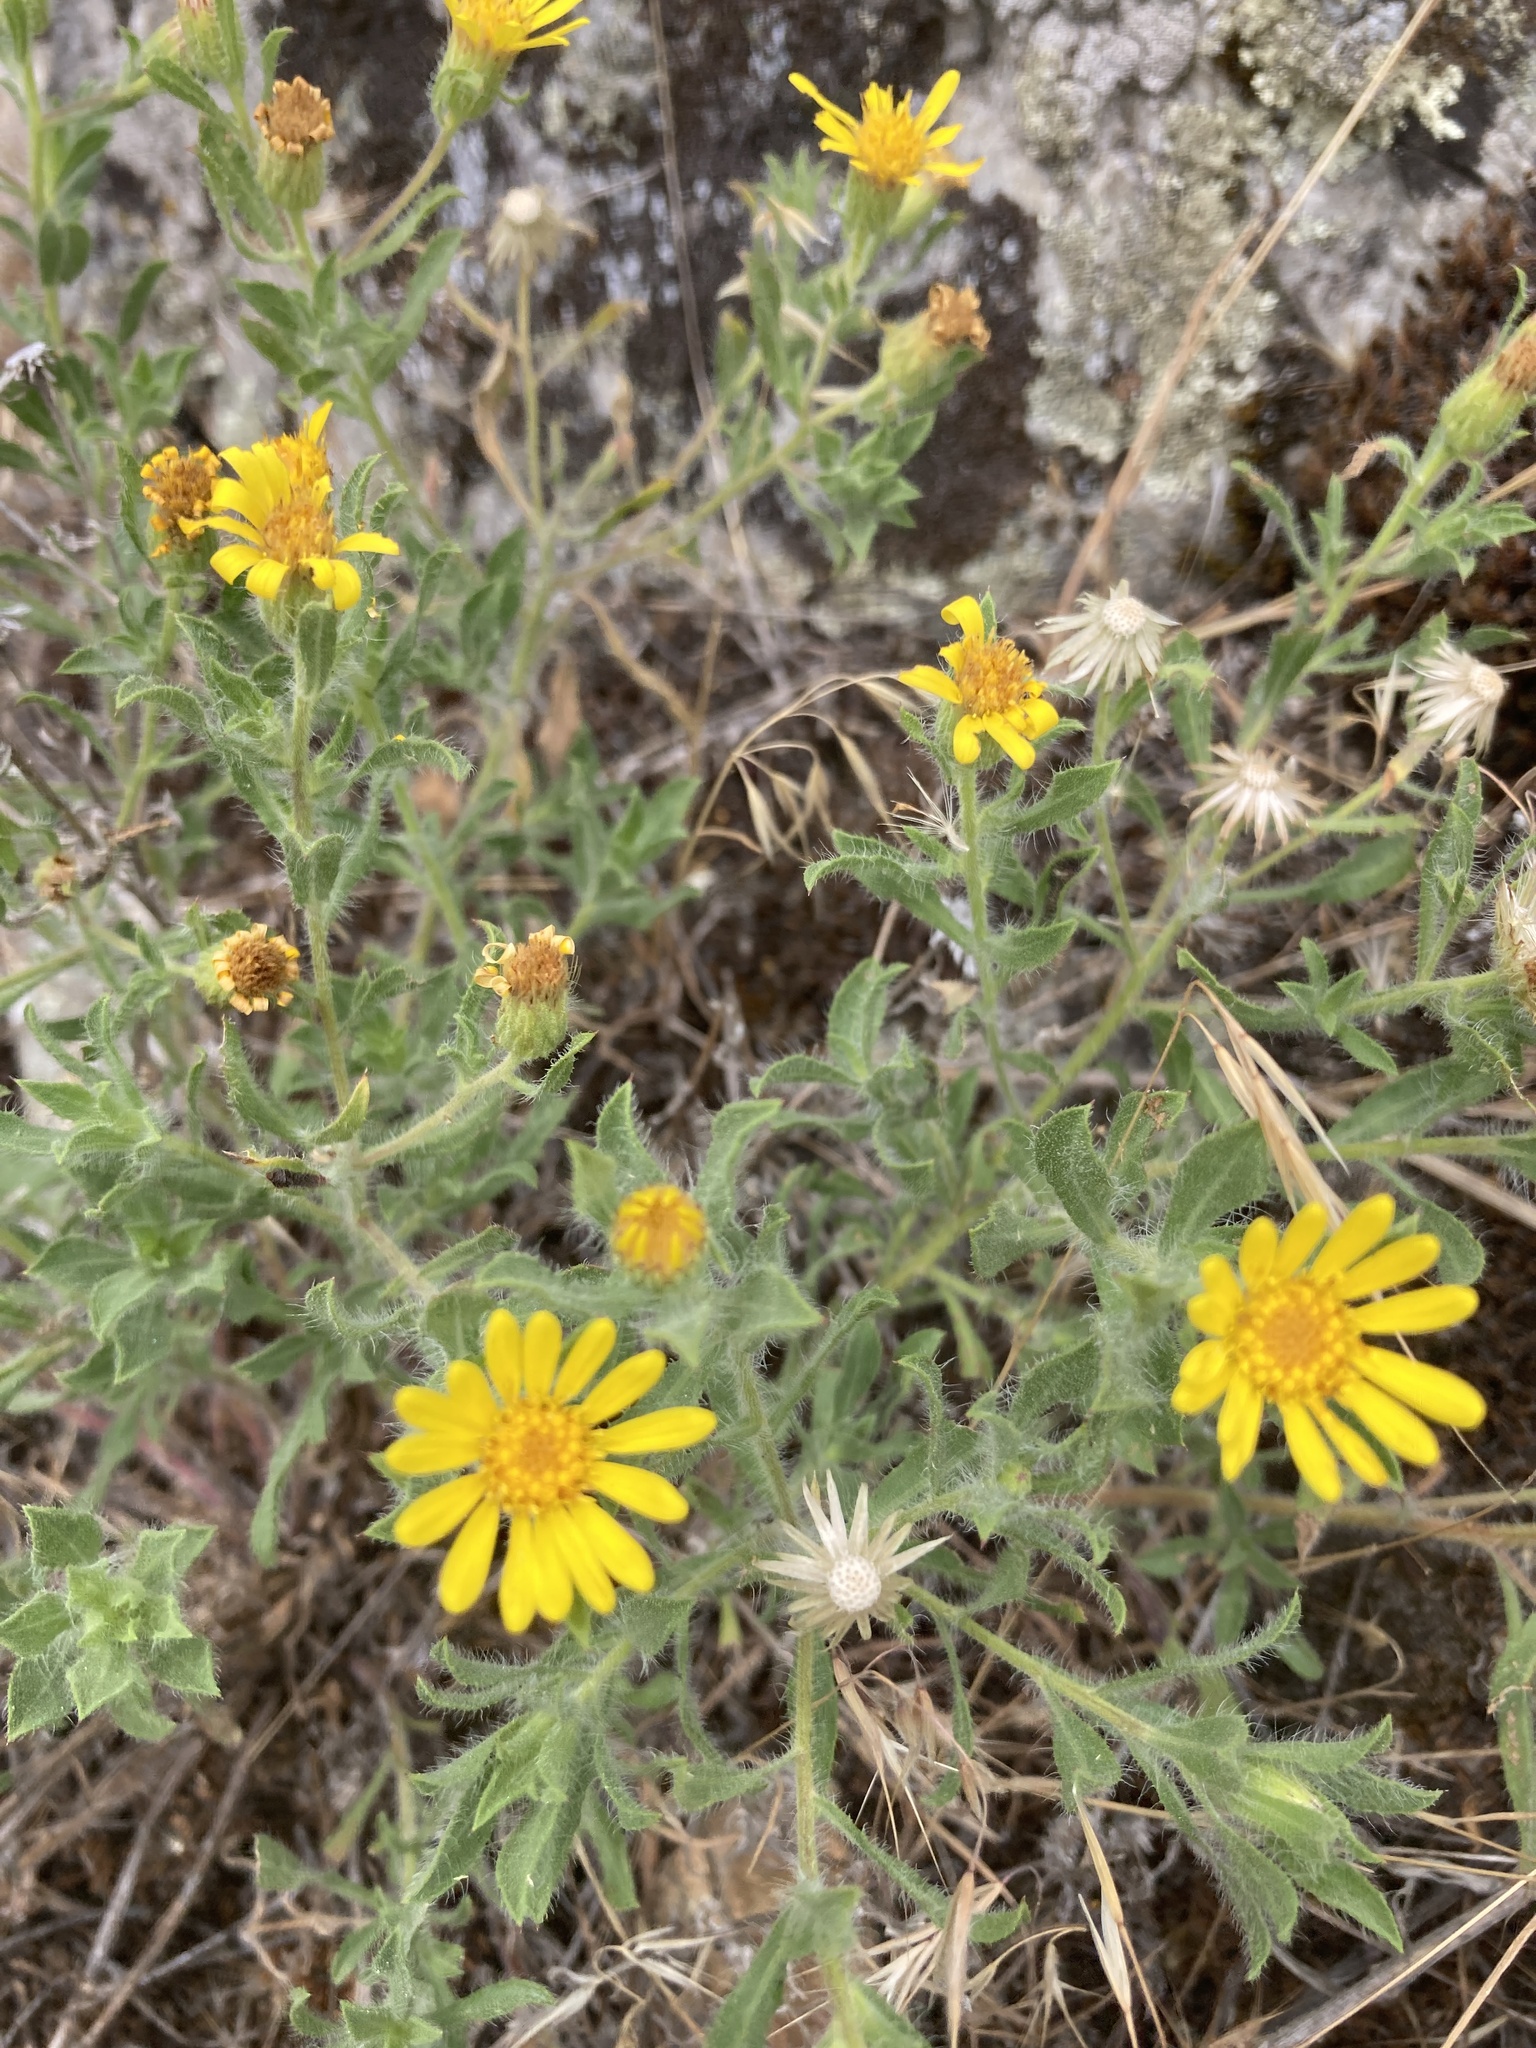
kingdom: Plantae
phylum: Tracheophyta
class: Magnoliopsida
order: Asterales
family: Asteraceae
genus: Heterotheca
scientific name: Heterotheca villosa
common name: Hairy false goldenaster
